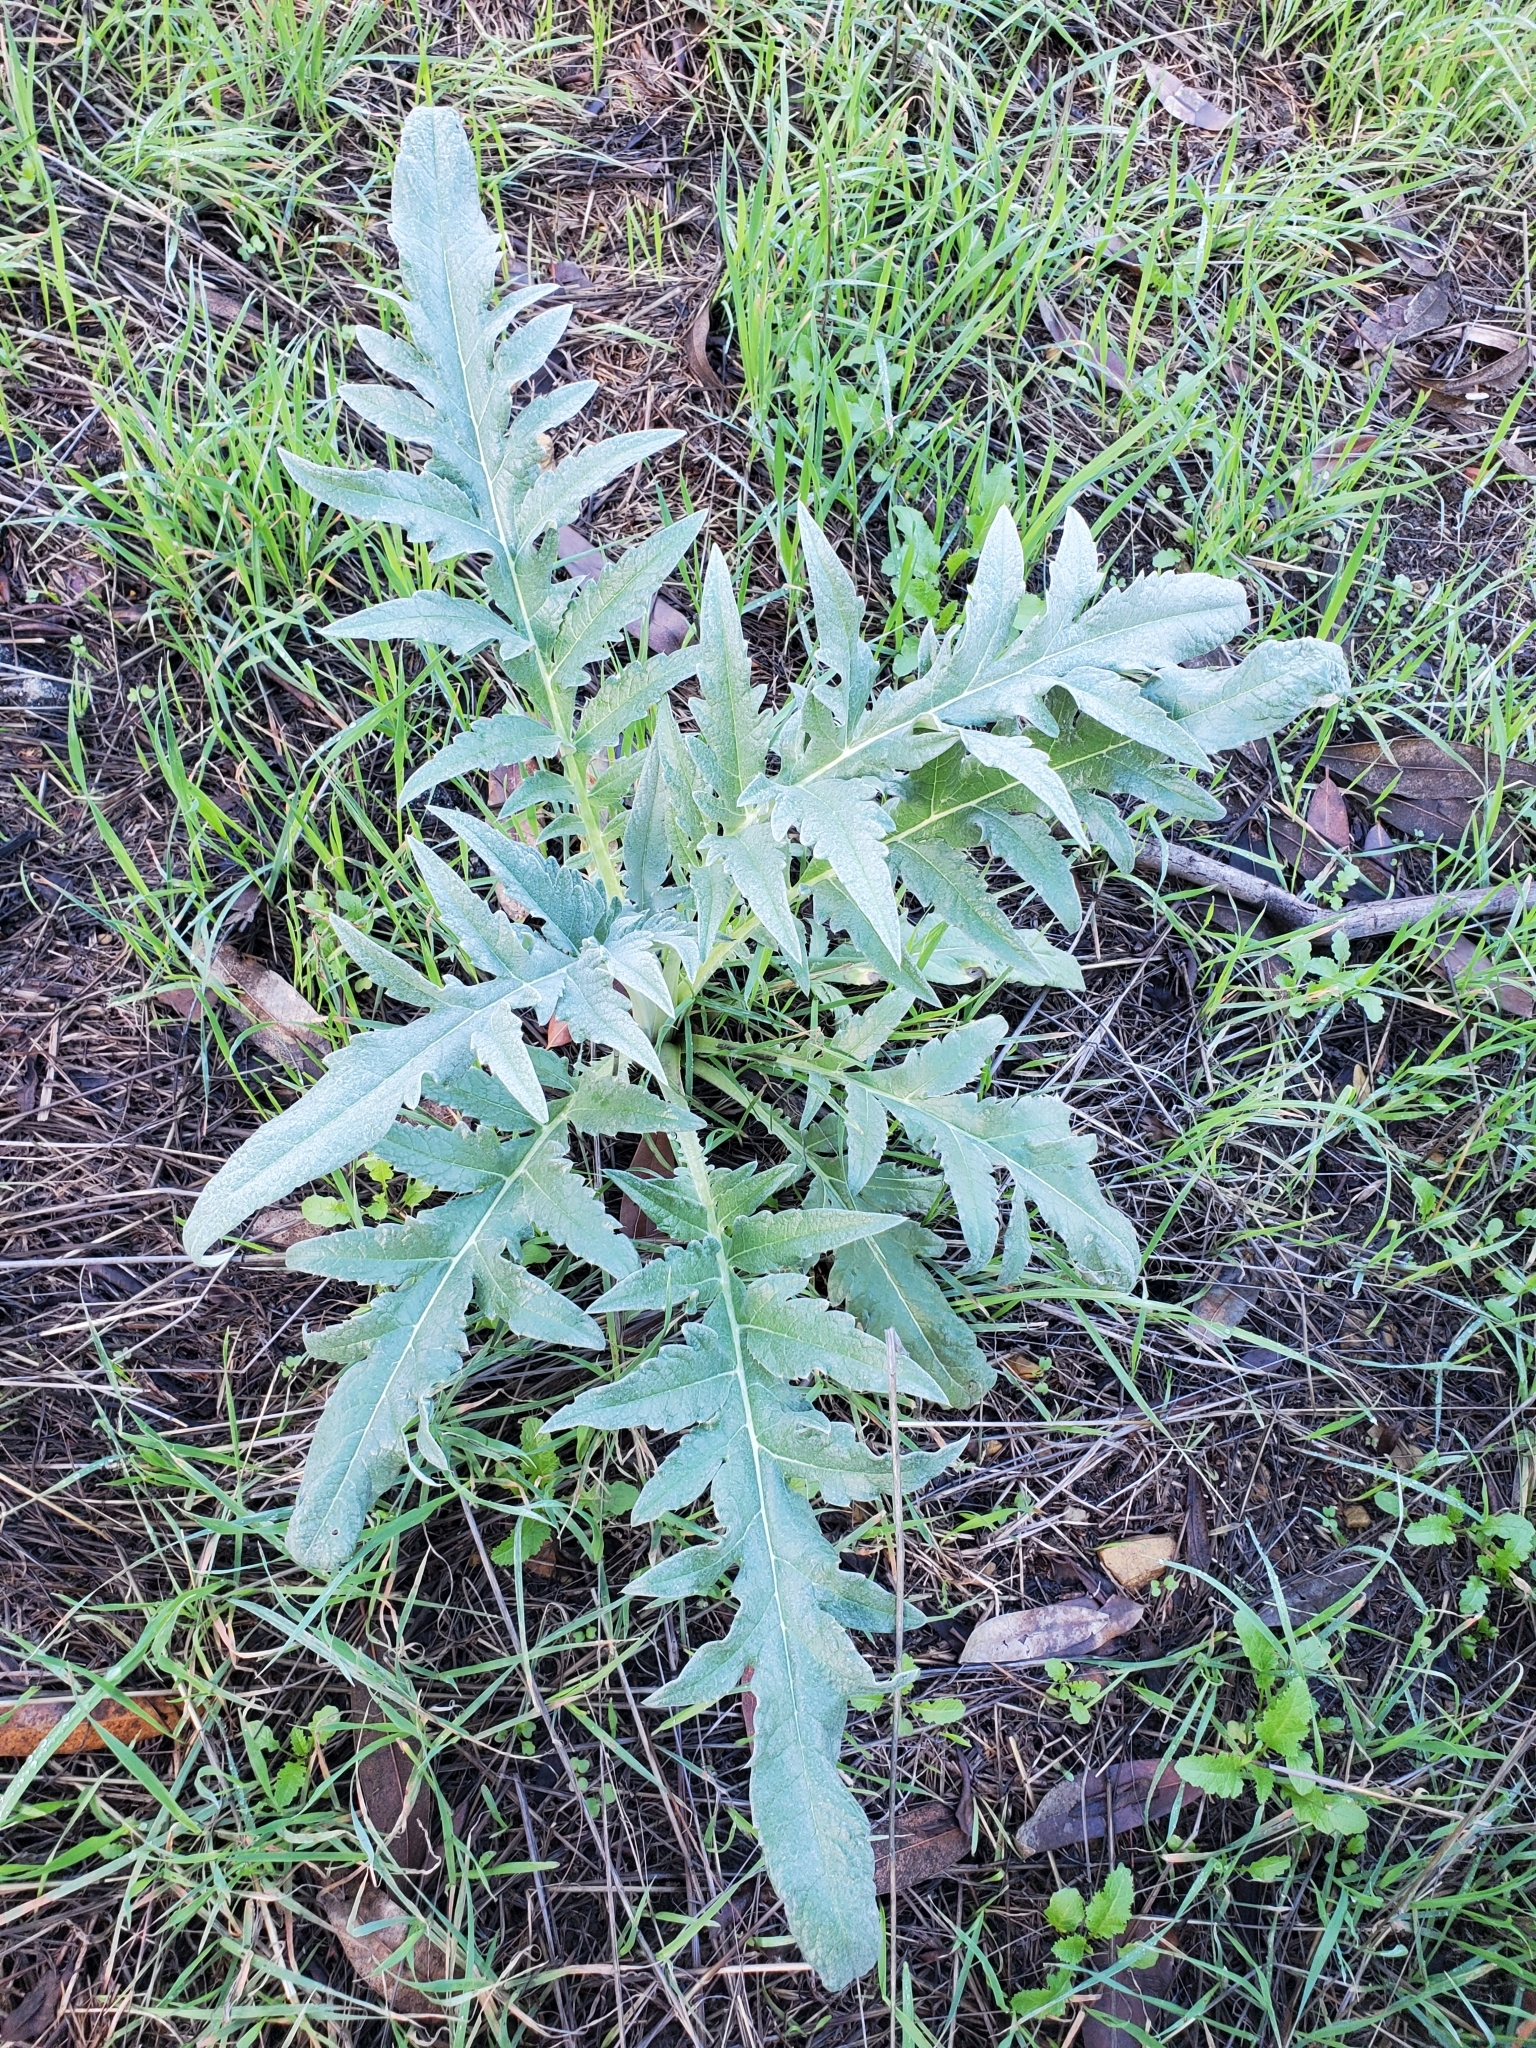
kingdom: Plantae
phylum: Tracheophyta
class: Magnoliopsida
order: Asterales
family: Asteraceae
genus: Cynara
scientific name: Cynara cardunculus
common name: Globe artichoke
